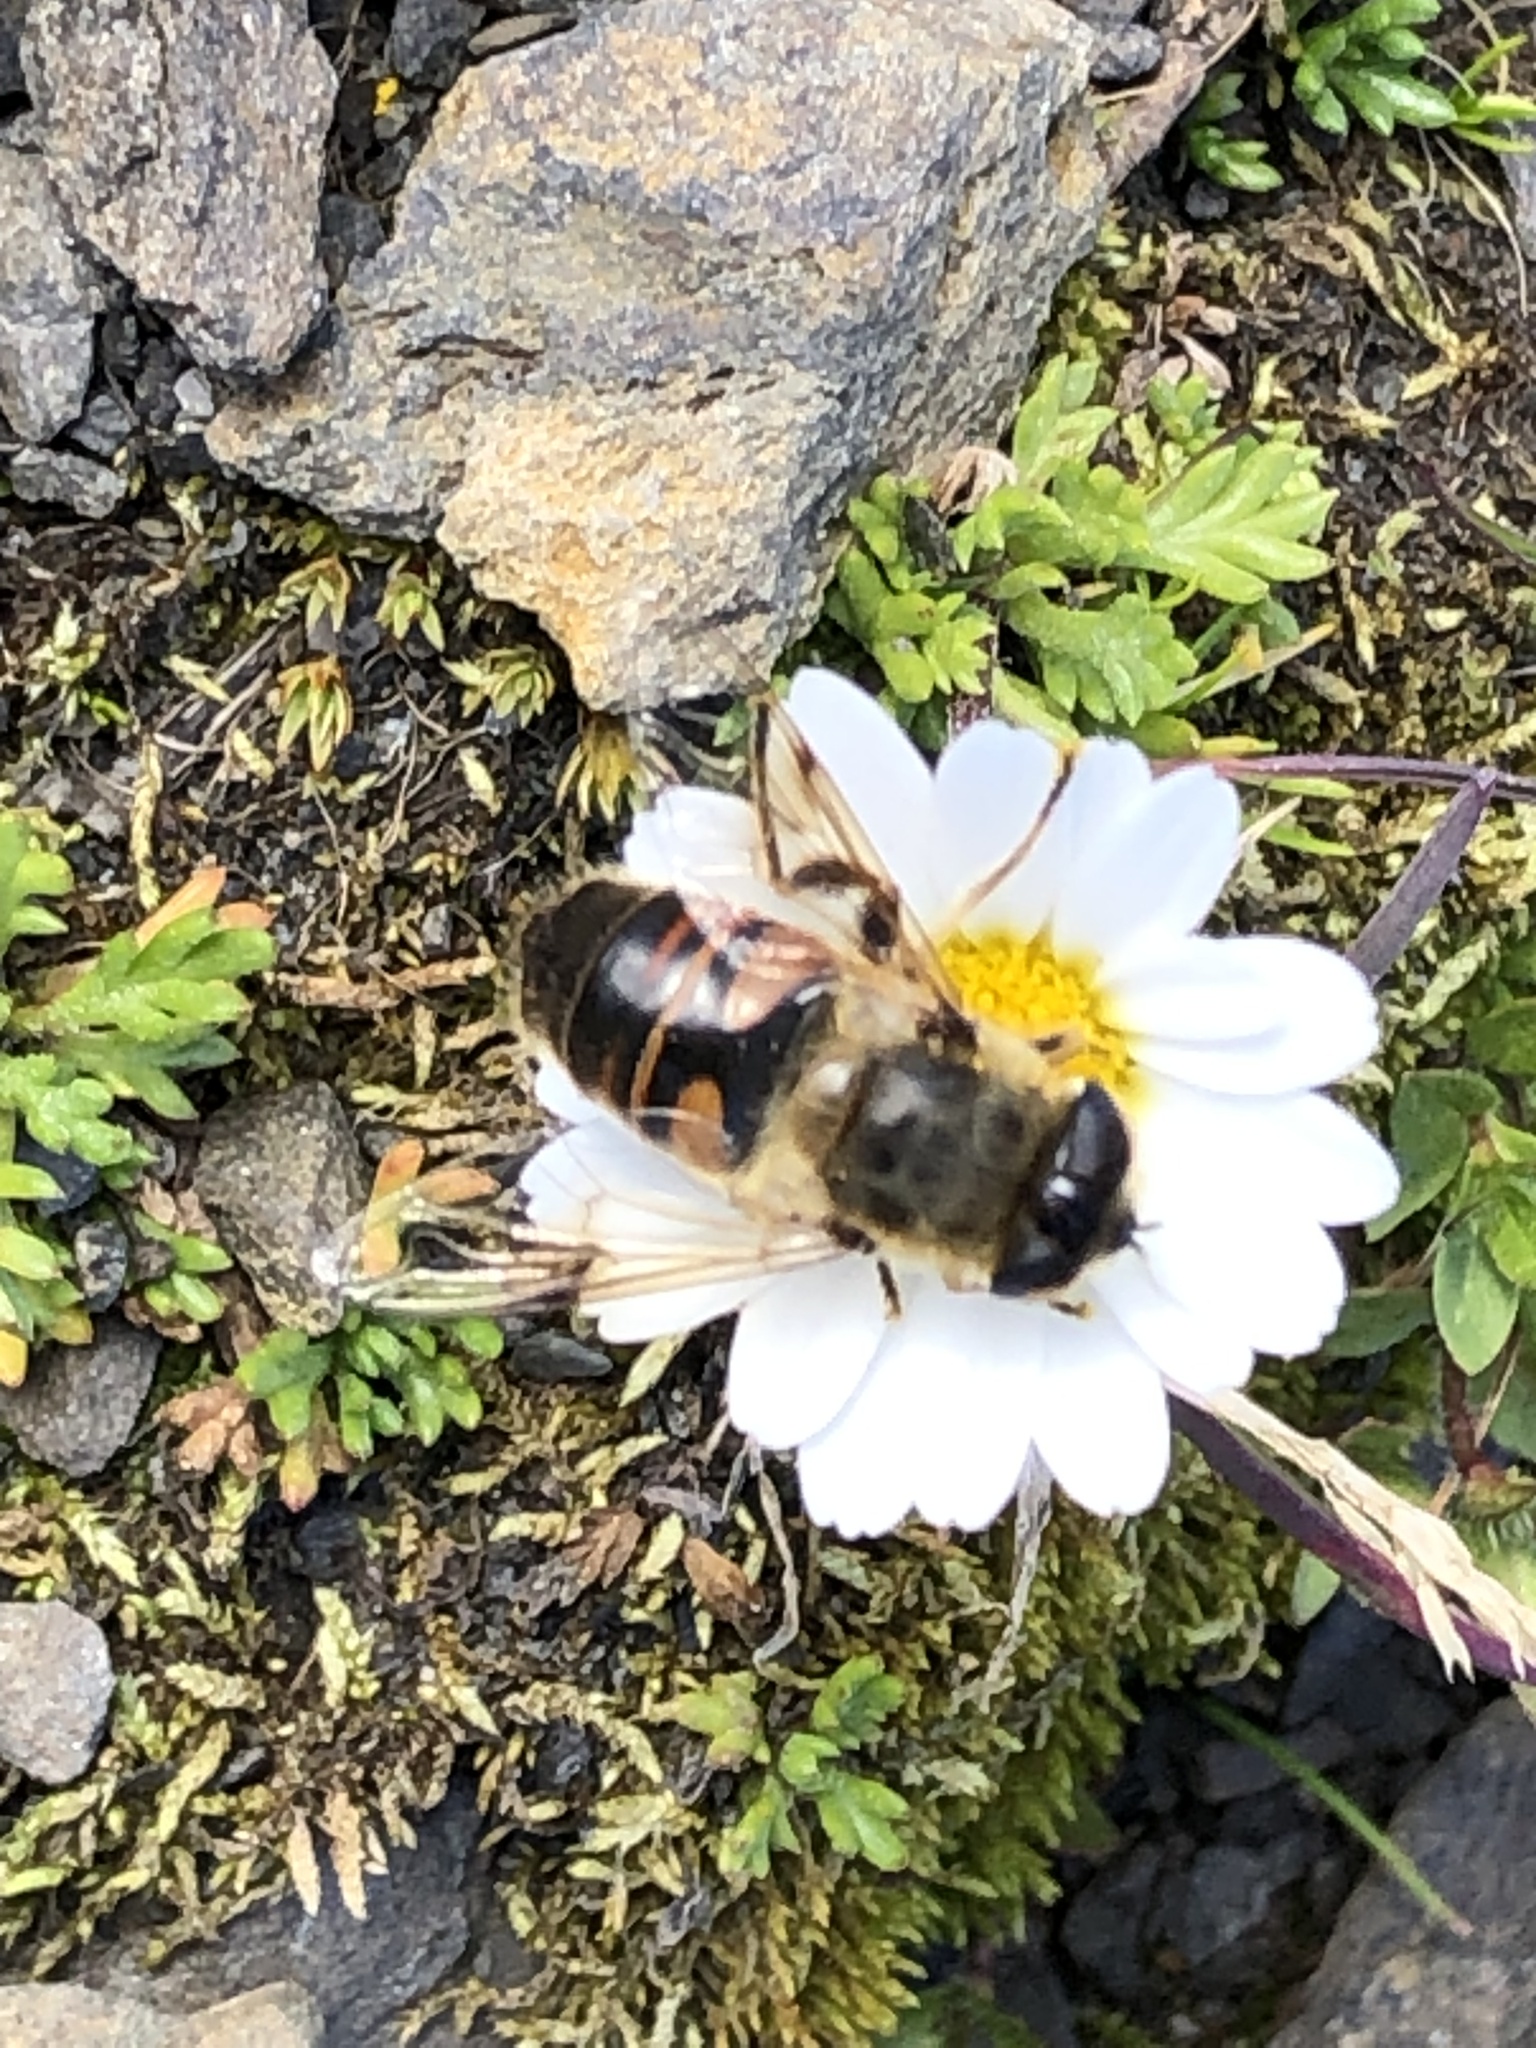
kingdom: Animalia
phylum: Arthropoda
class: Insecta
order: Diptera
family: Syrphidae
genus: Eristalis
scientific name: Eristalis tenax
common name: Drone fly
